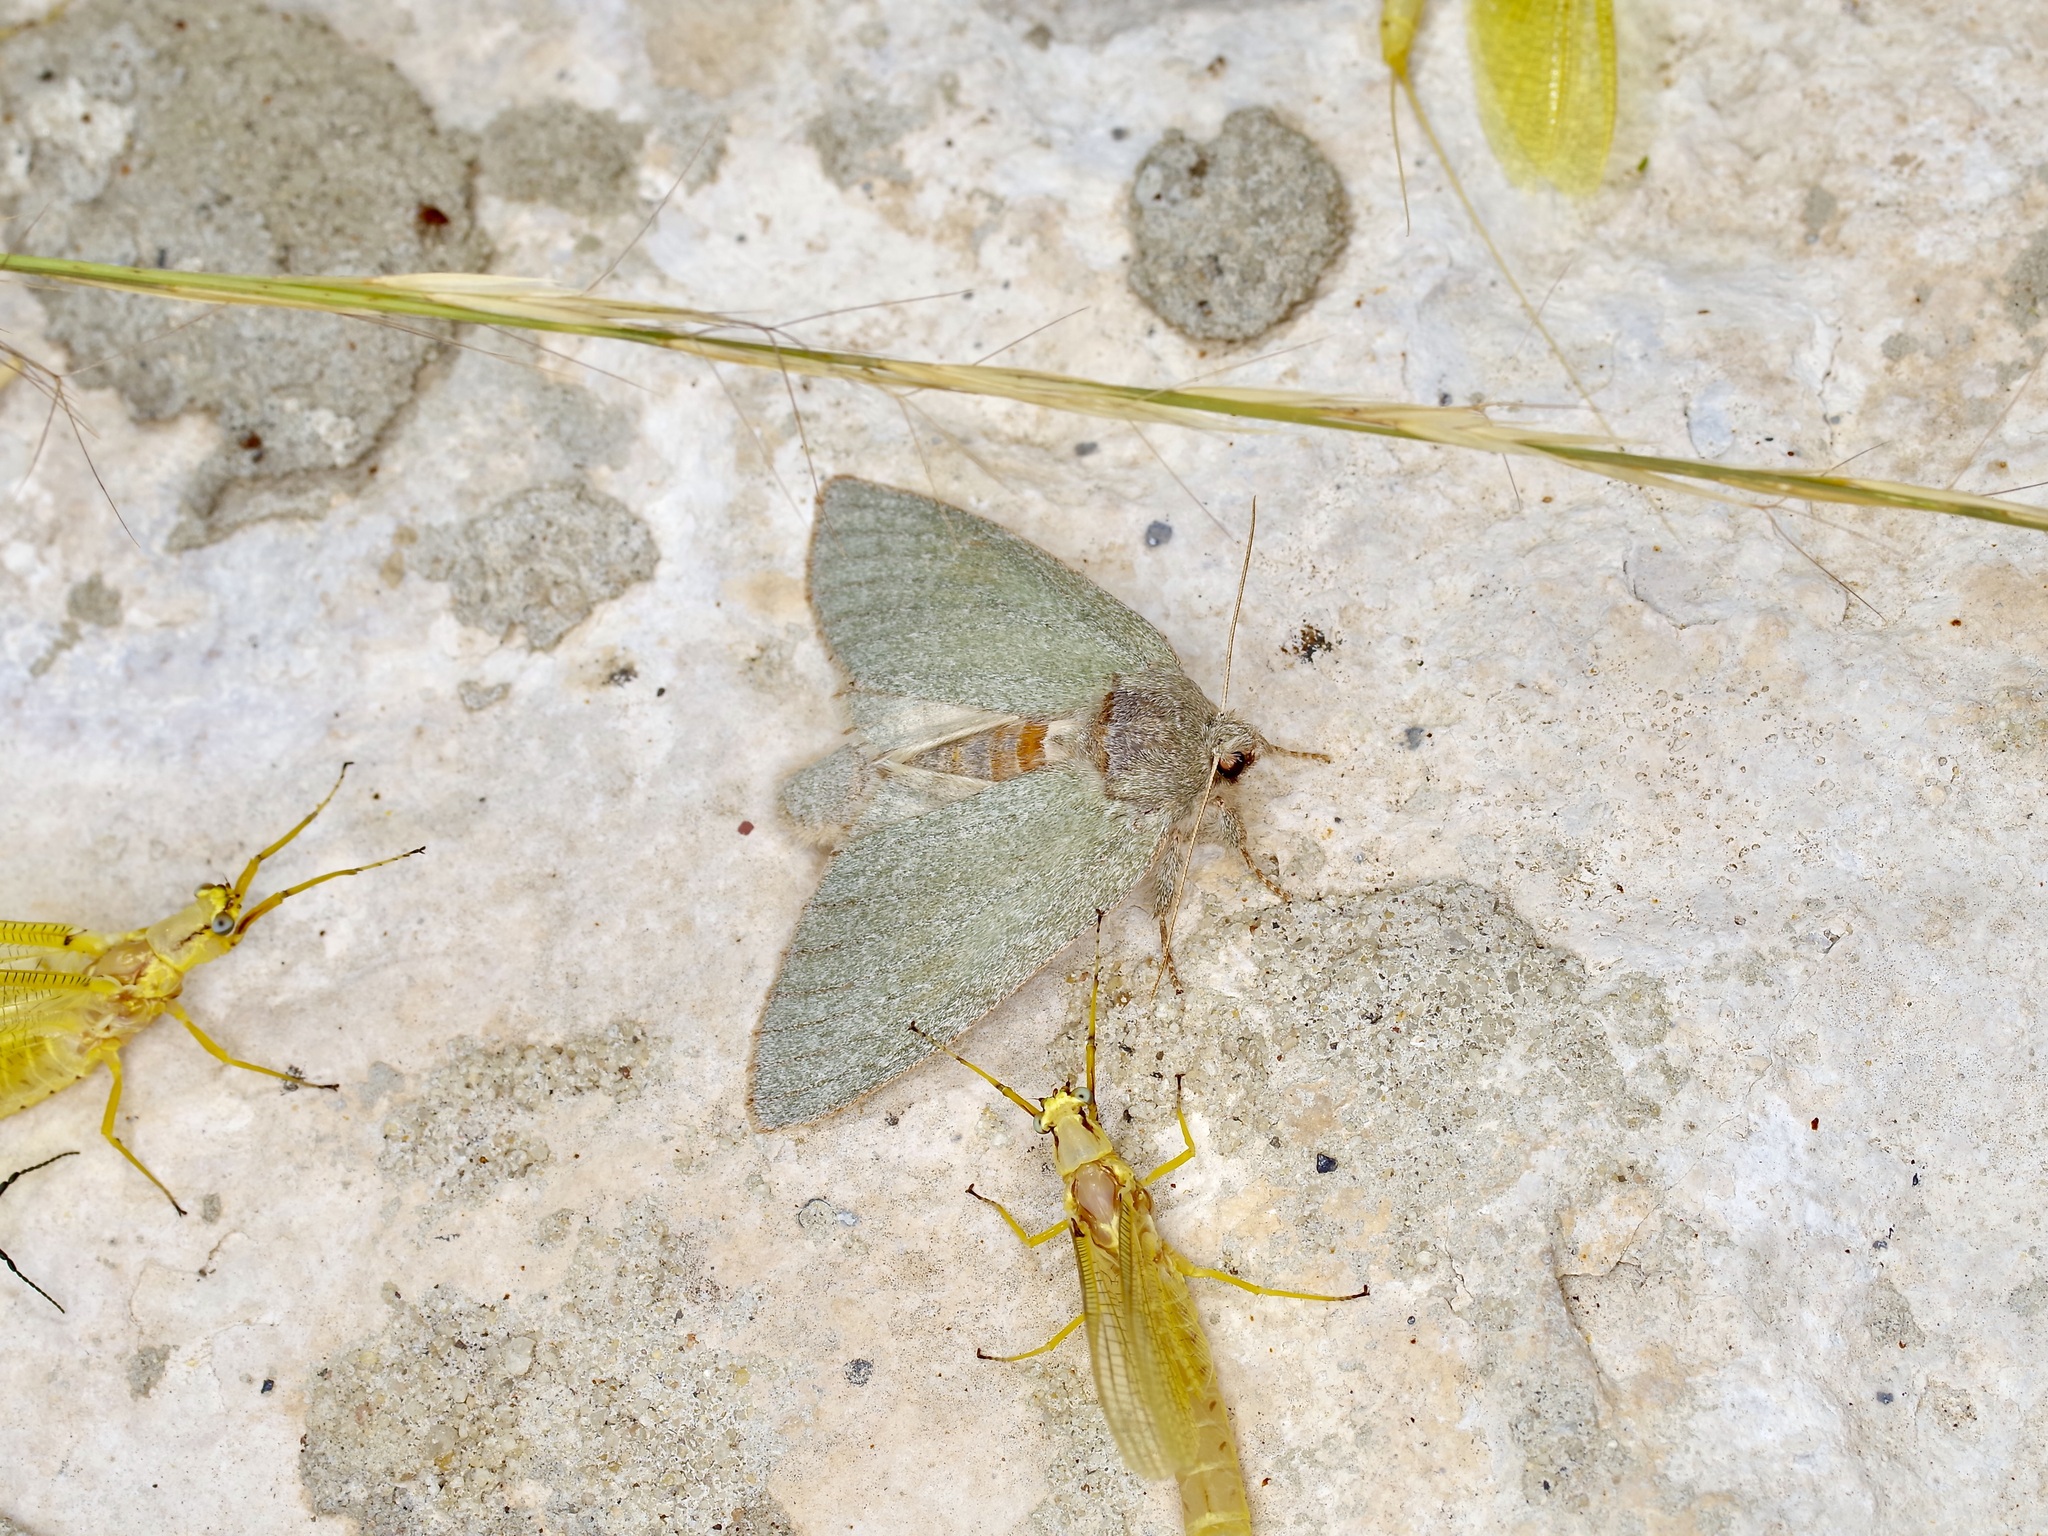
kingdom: Animalia
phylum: Arthropoda
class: Insecta
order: Lepidoptera
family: Notodontidae
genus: Misogada
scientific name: Misogada unicolor
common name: Drab prominent
